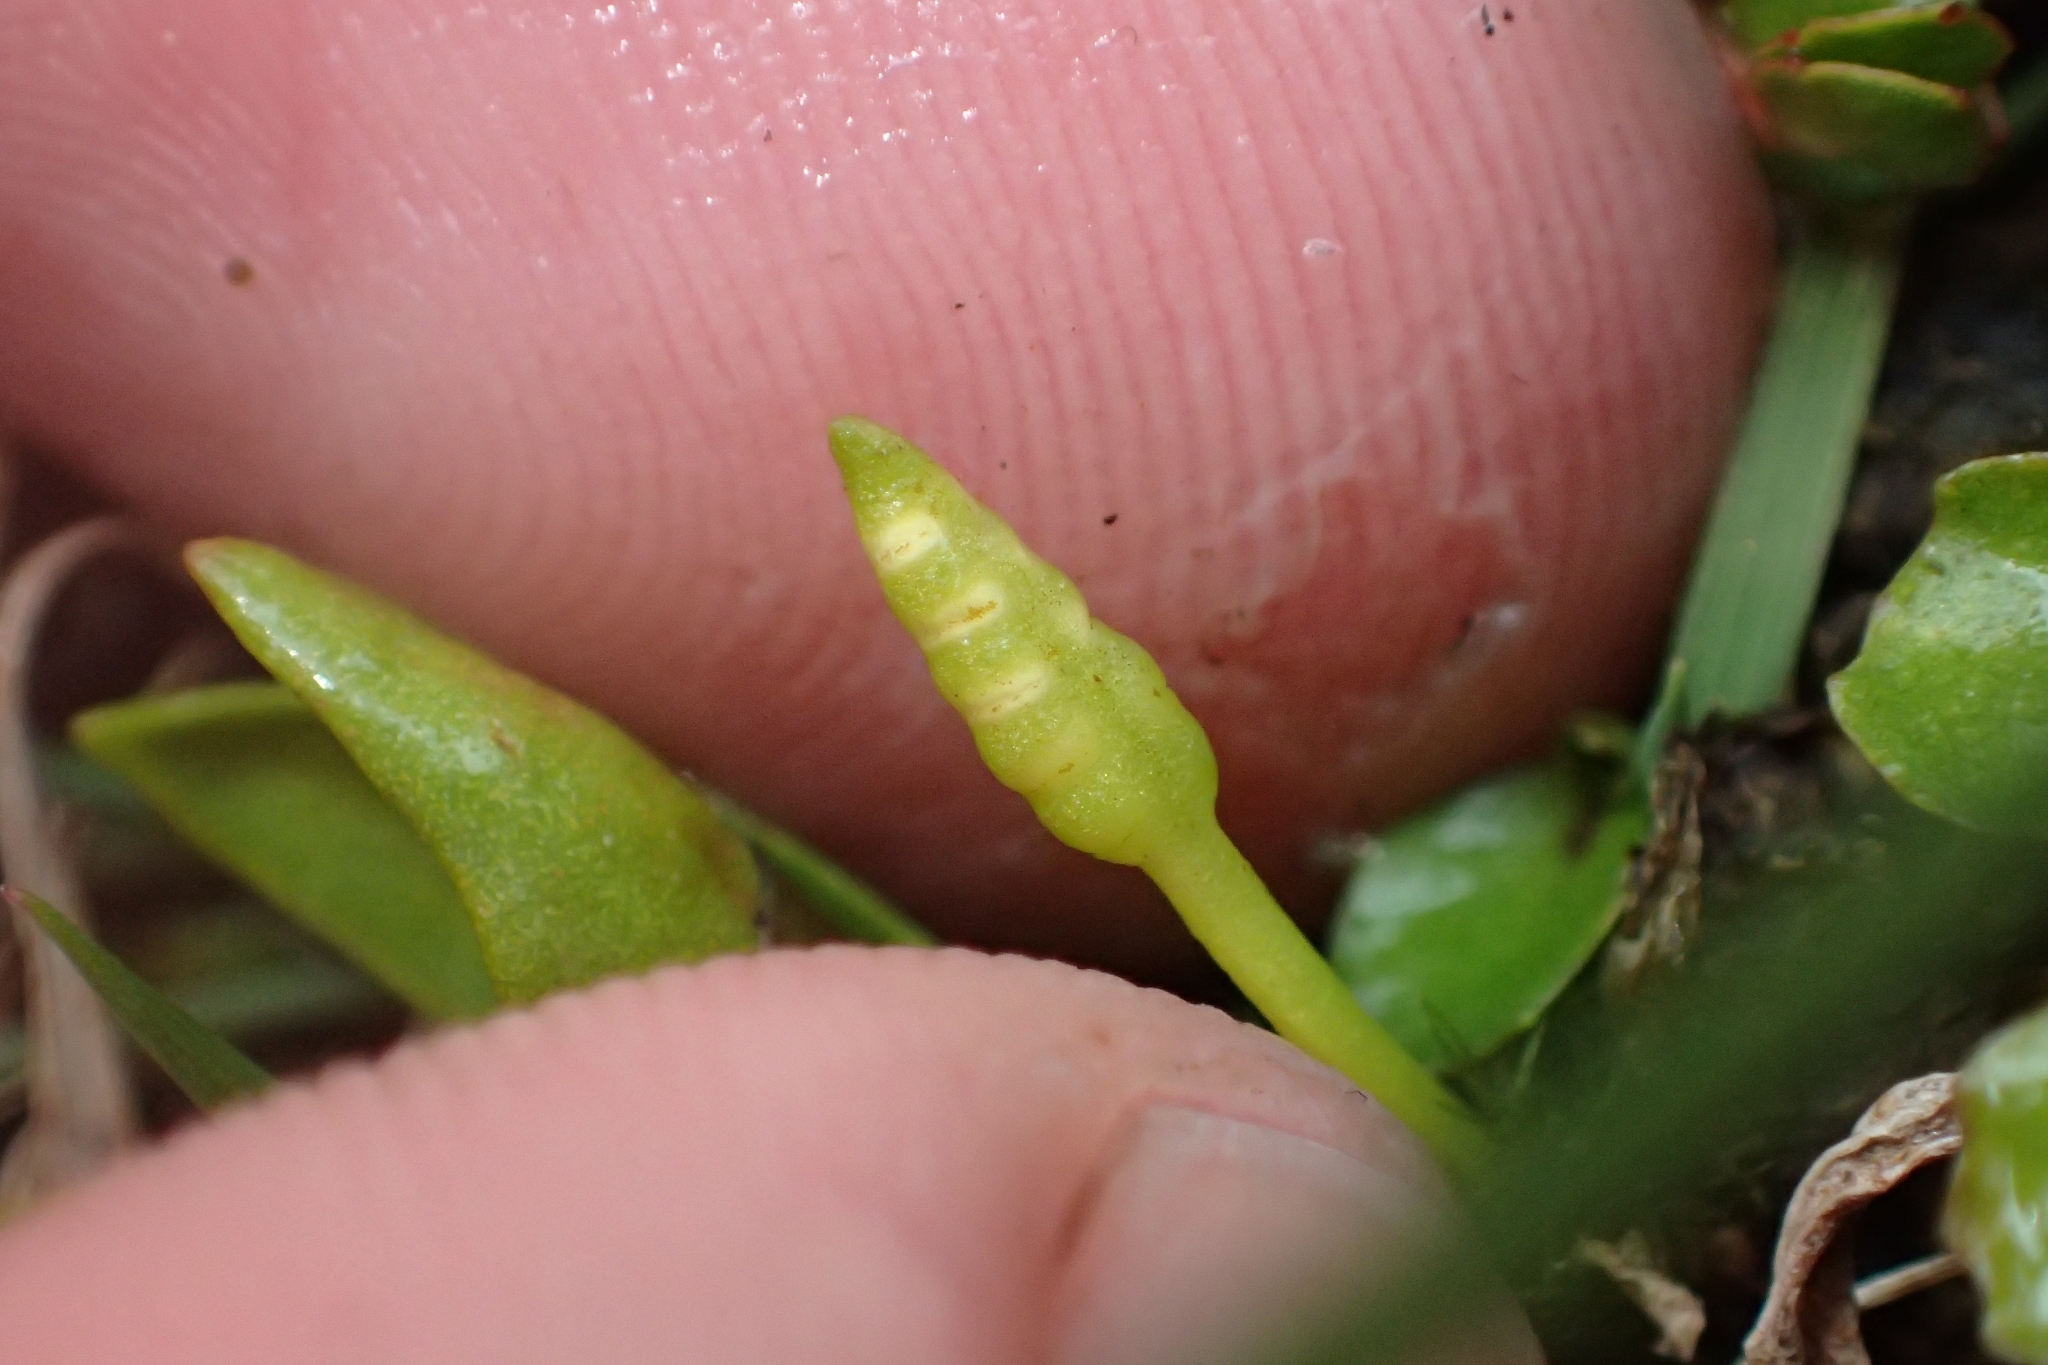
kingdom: Plantae
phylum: Tracheophyta
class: Polypodiopsida
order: Ophioglossales
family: Ophioglossaceae
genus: Ophioglossum
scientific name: Ophioglossum coriaceum
